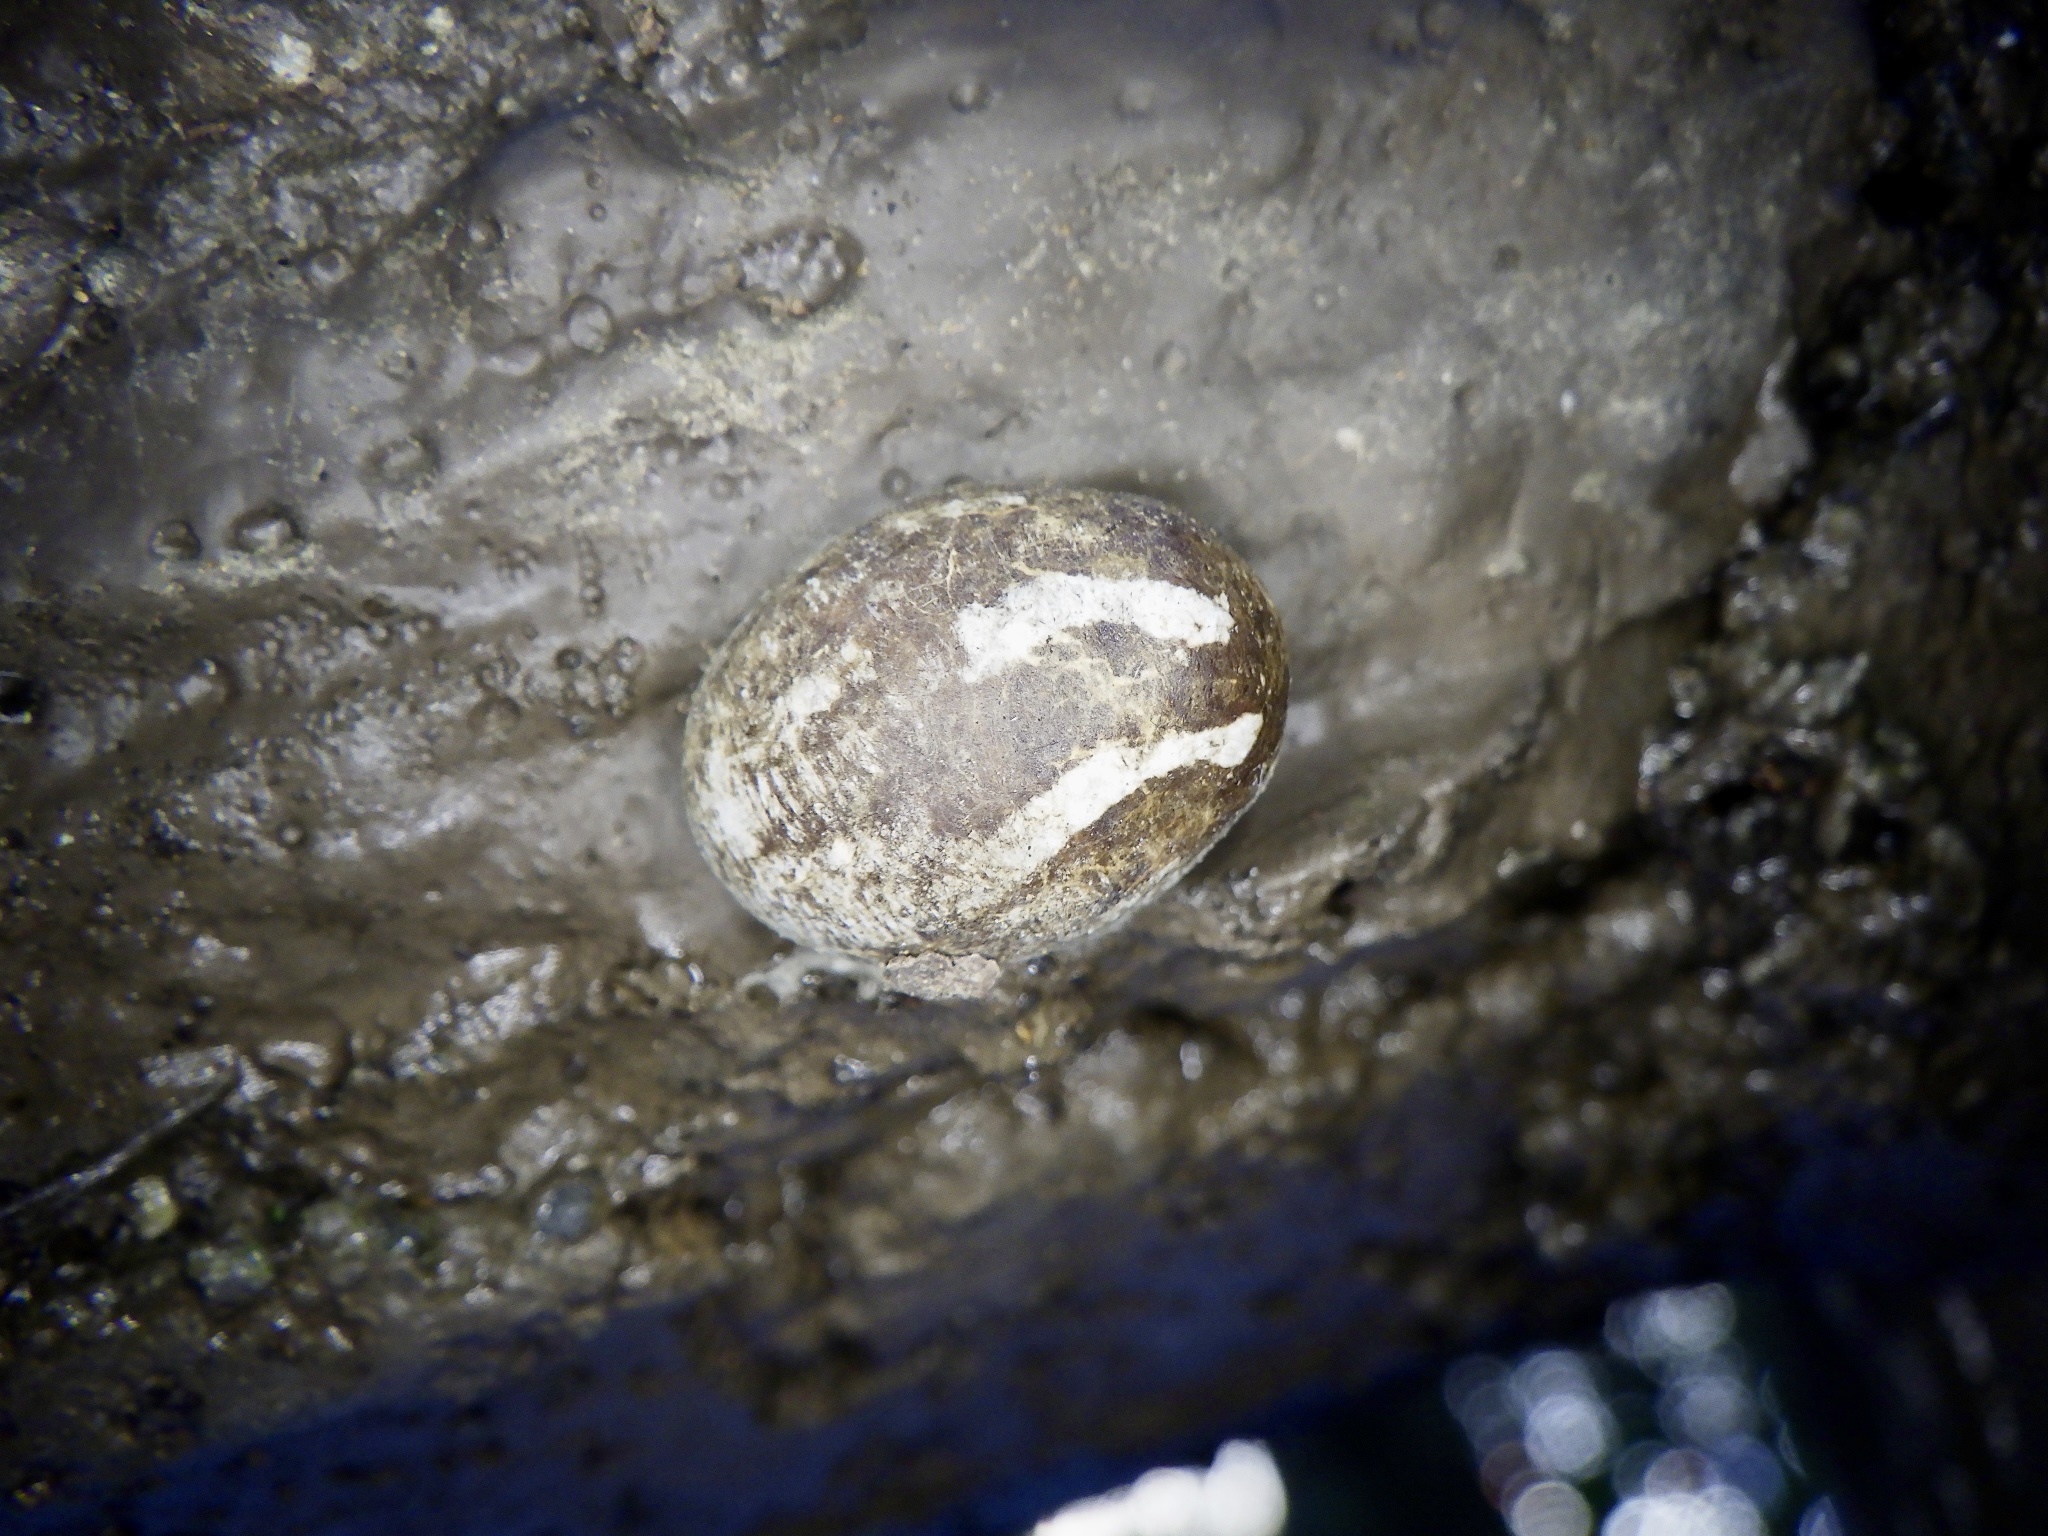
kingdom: Animalia
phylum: Arthropoda
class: Insecta
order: Lepidoptera
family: Limacodidae
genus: Monema
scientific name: Monema flavescens
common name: Oriental moth
